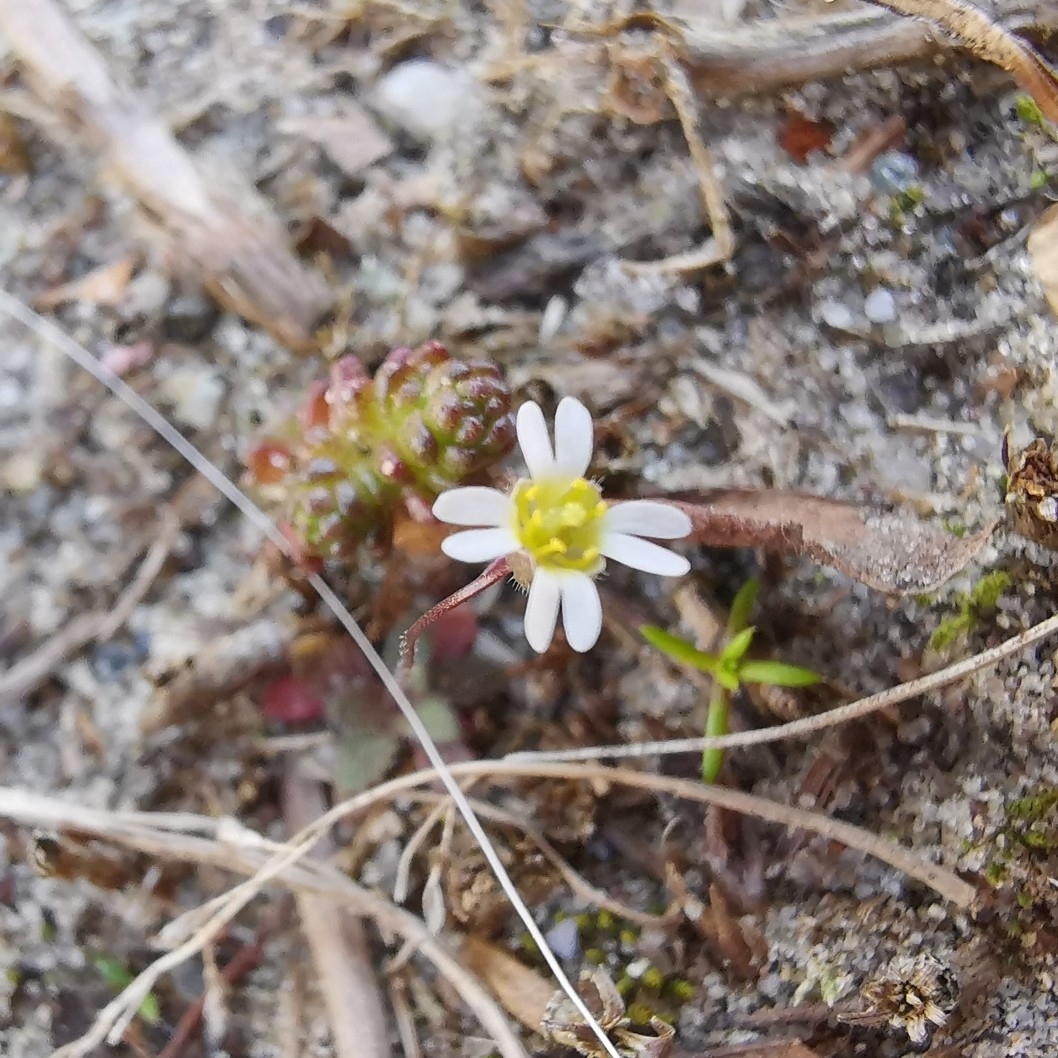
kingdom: Plantae
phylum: Tracheophyta
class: Magnoliopsida
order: Brassicales
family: Brassicaceae
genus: Draba
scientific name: Draba verna
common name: Spring draba
